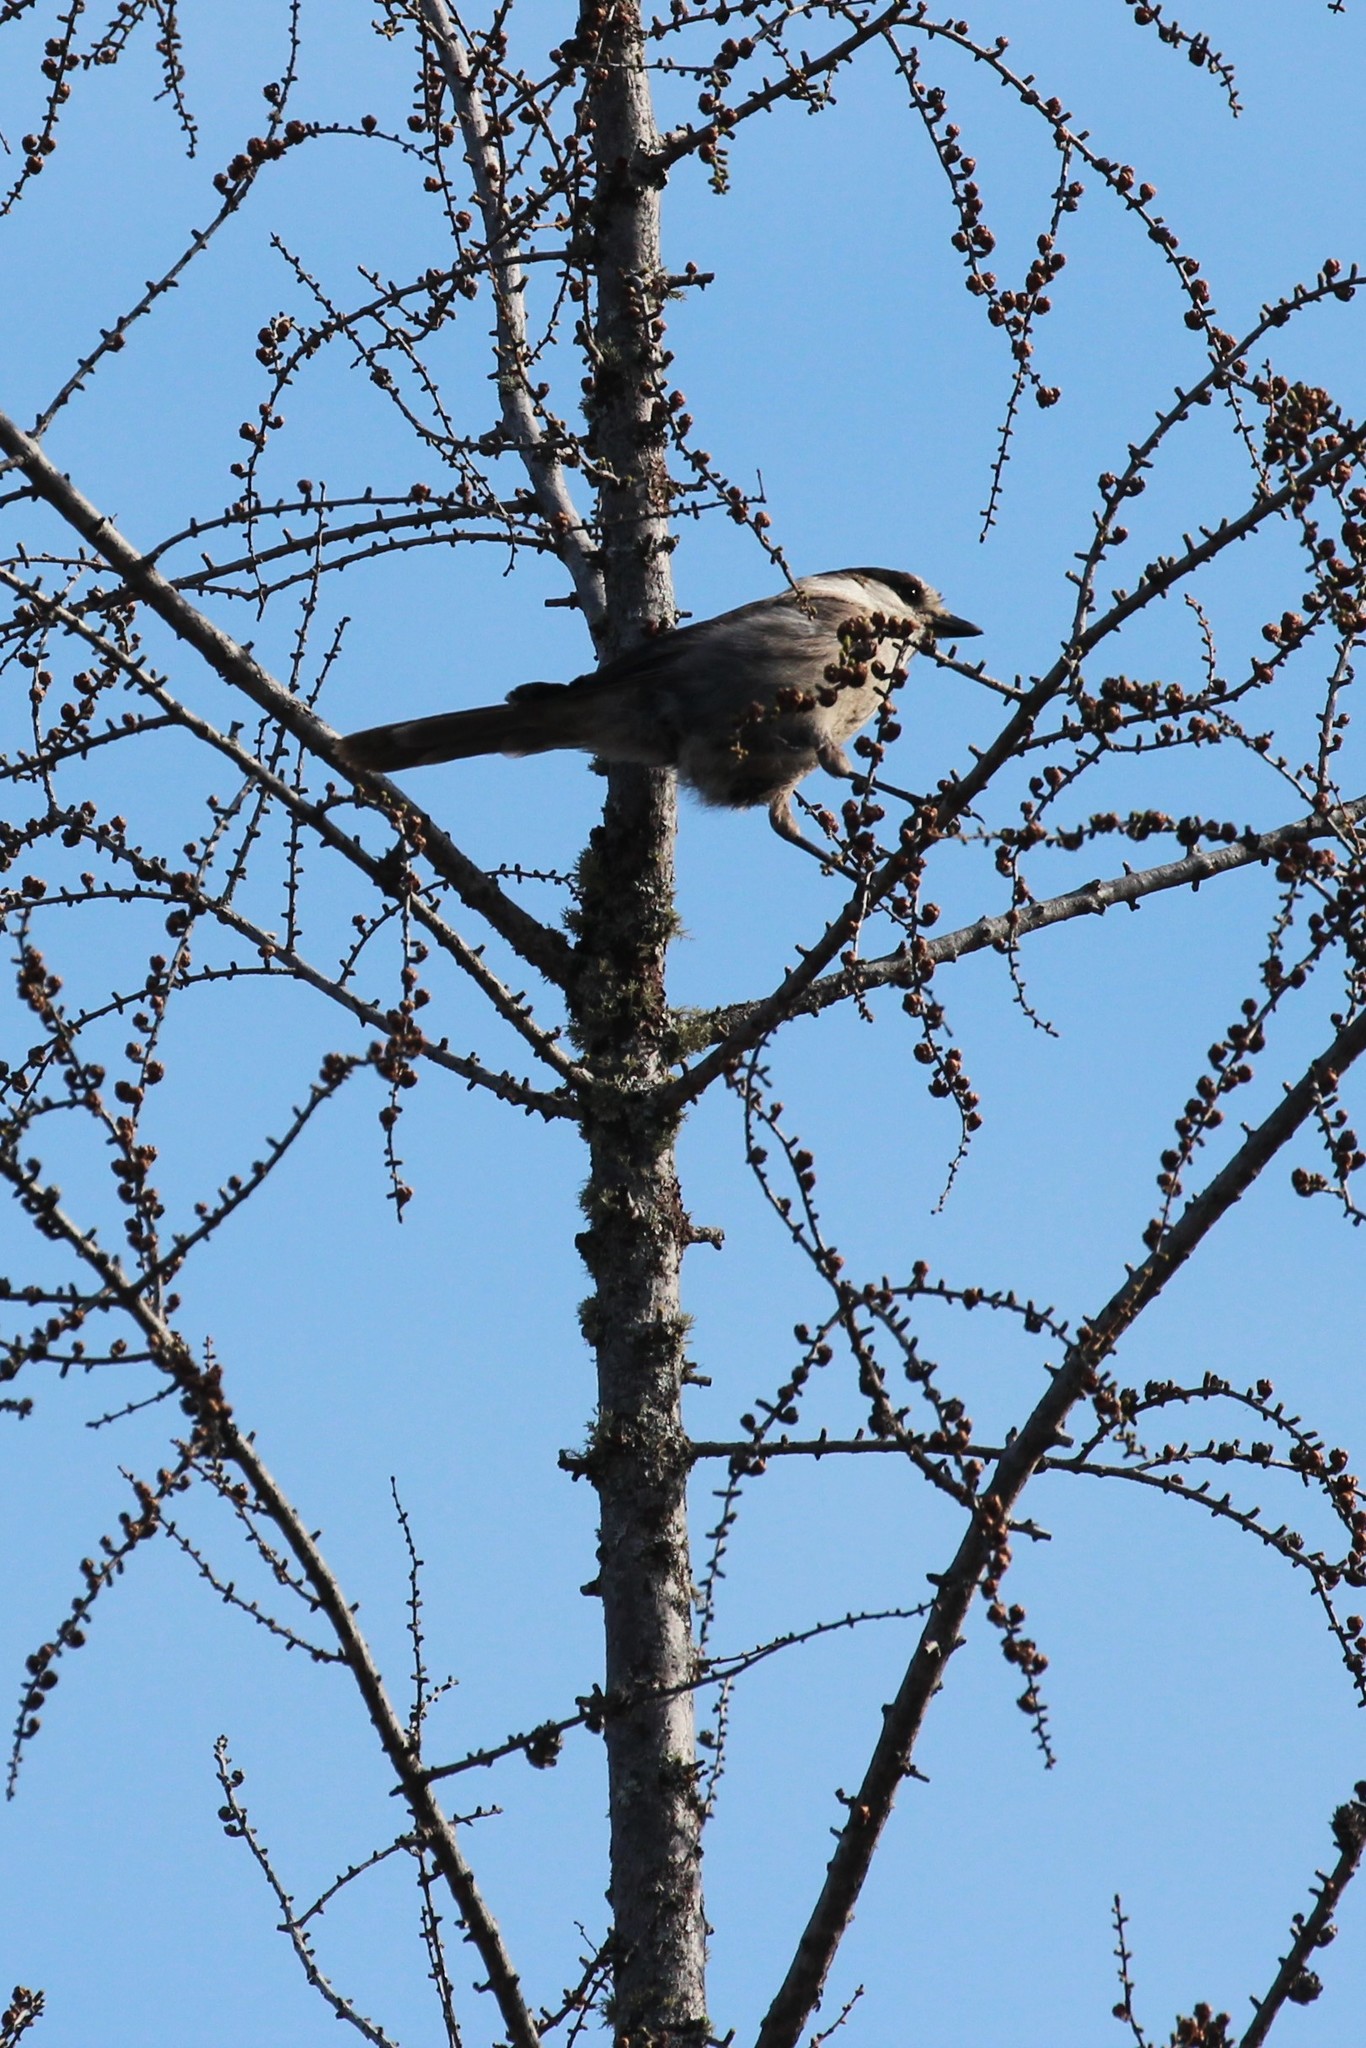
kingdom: Animalia
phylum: Chordata
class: Aves
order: Passeriformes
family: Corvidae
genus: Perisoreus
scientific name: Perisoreus canadensis
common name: Gray jay
